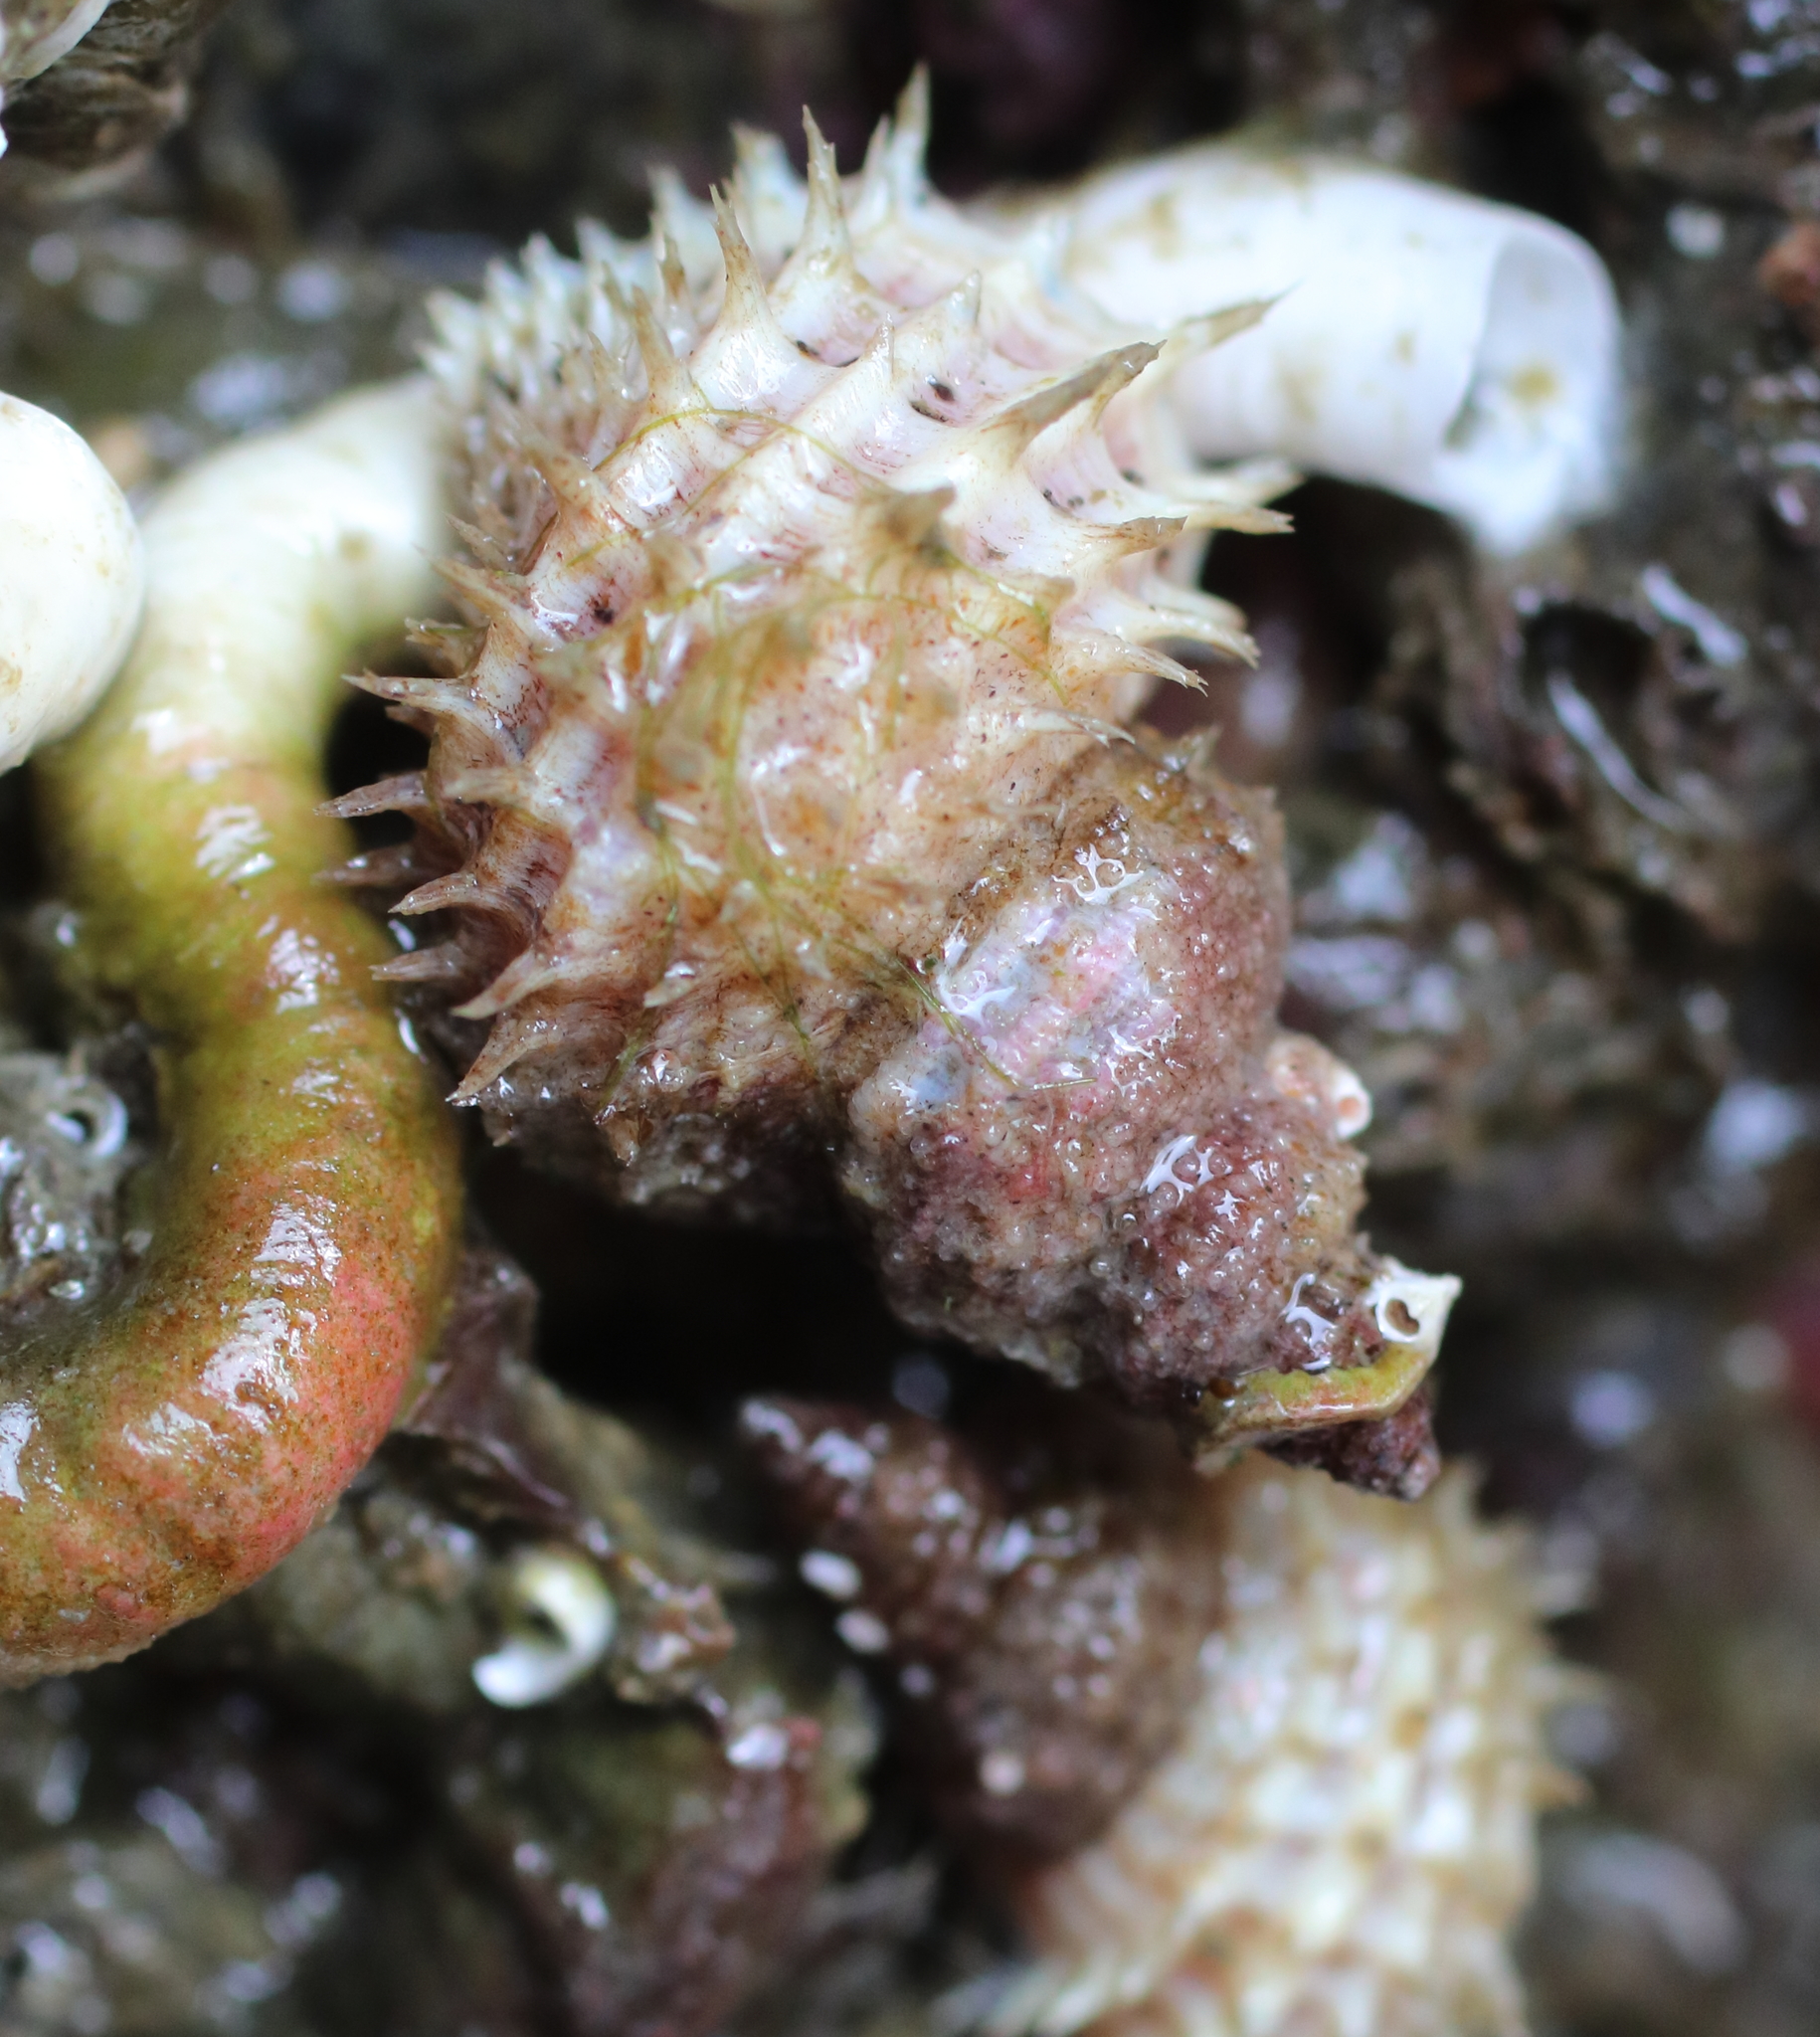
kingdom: Animalia
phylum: Mollusca
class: Gastropoda
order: Littorinimorpha
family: Capulidae
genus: Trichotropis
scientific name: Trichotropis cancellata
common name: Cancellate hairysnail
